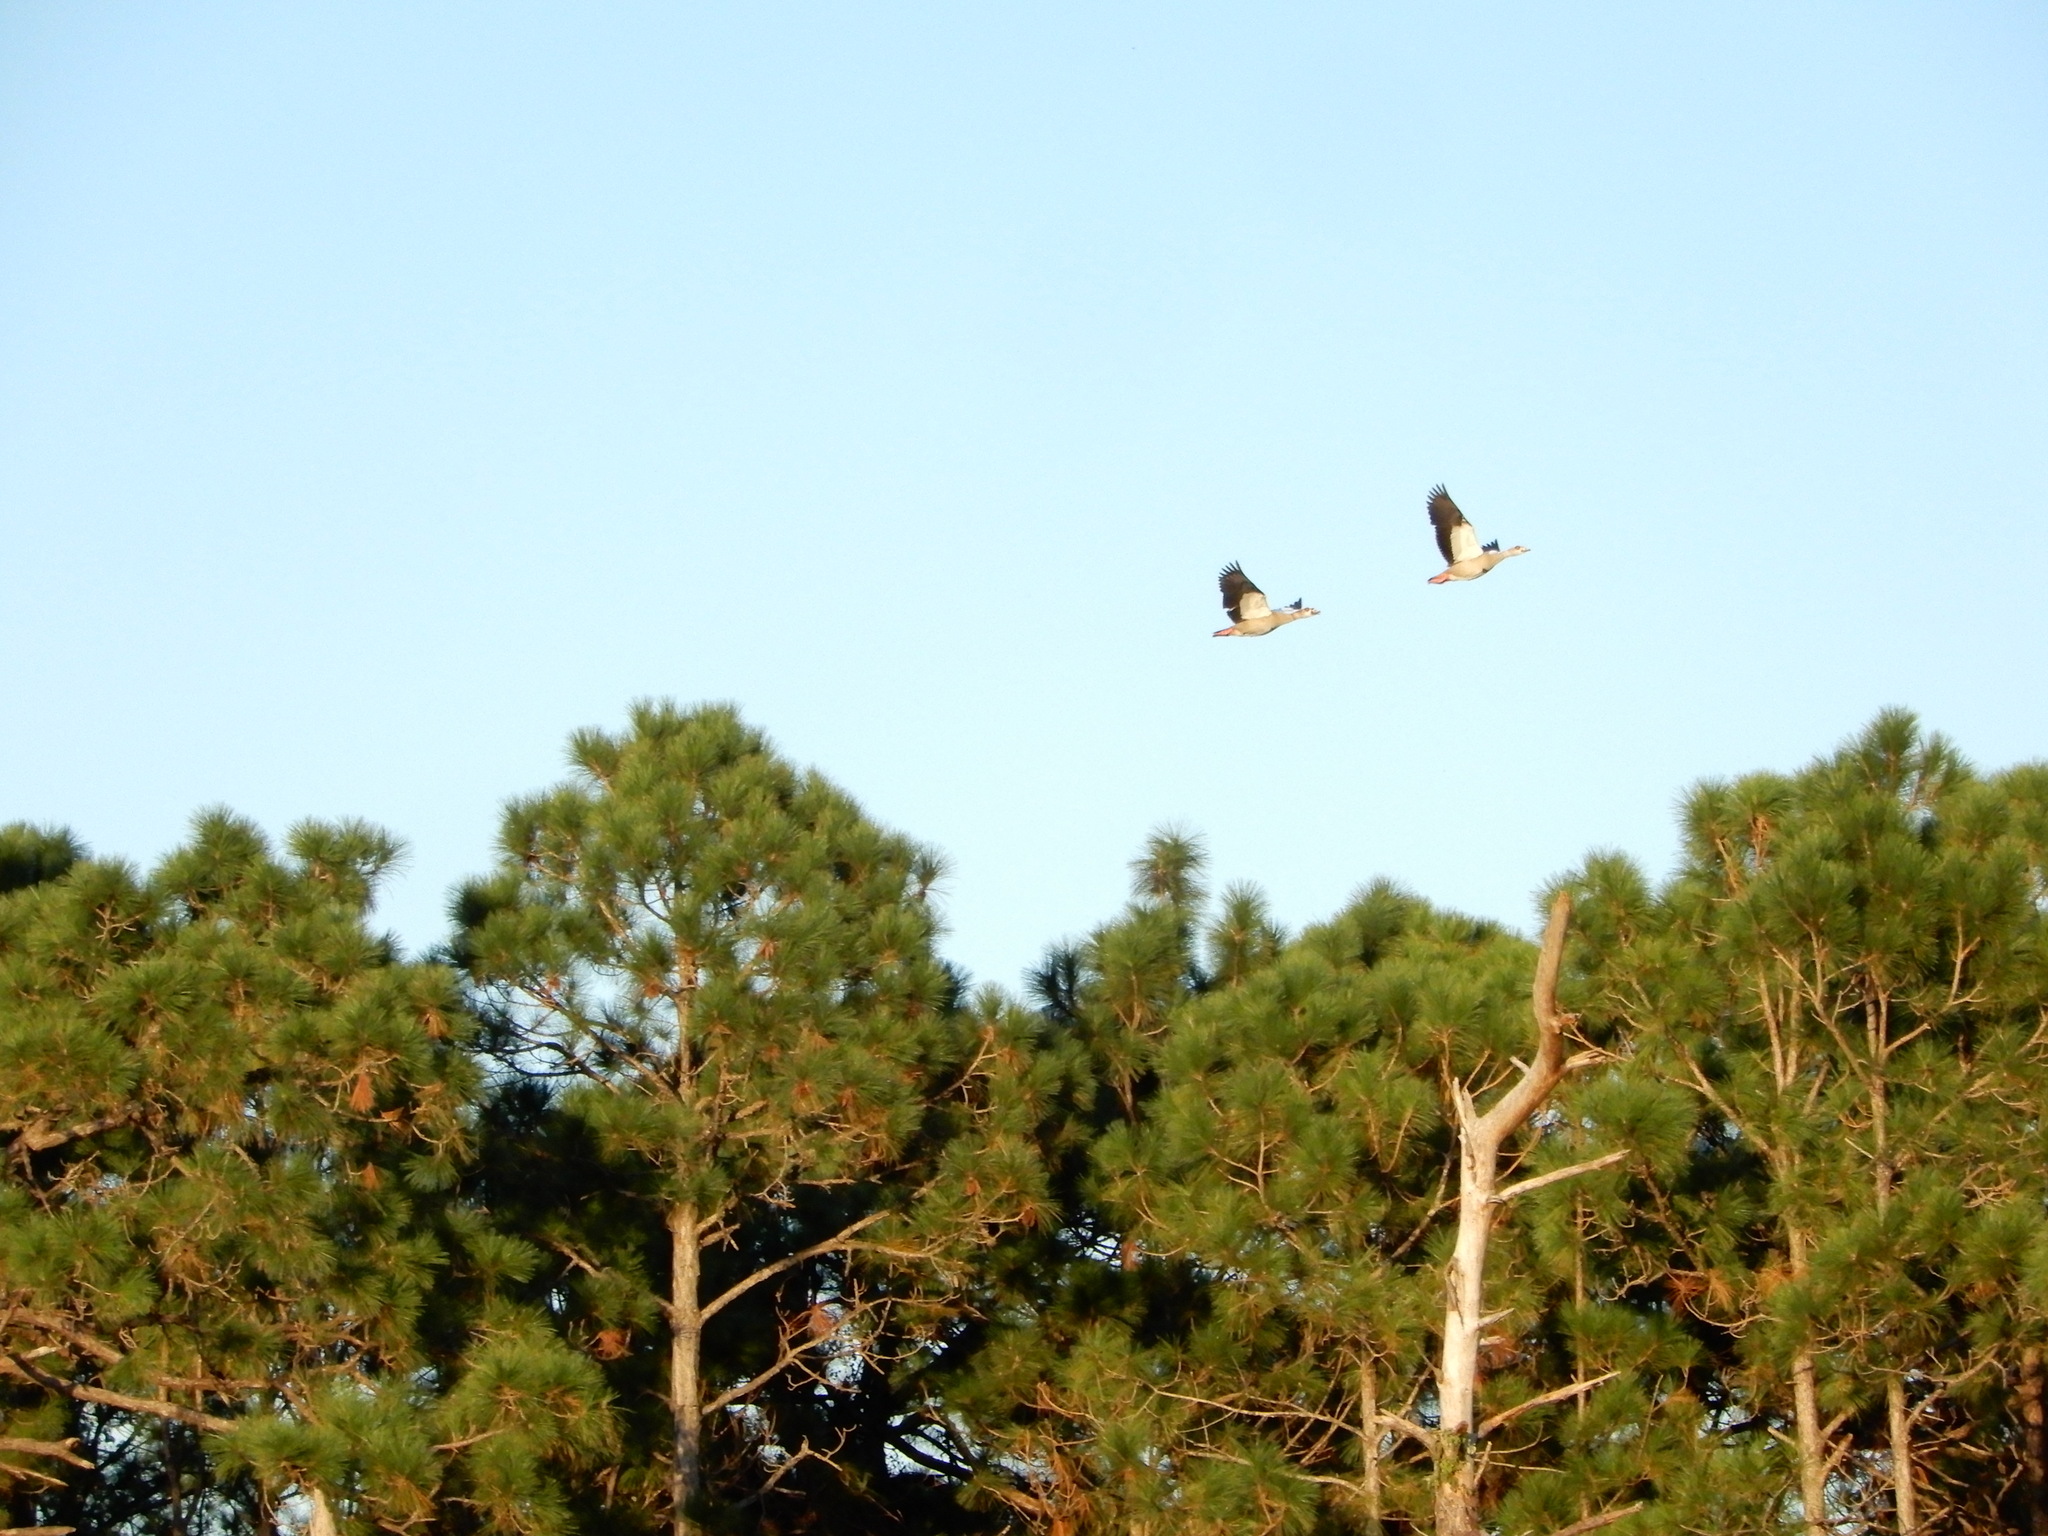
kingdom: Animalia
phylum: Chordata
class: Aves
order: Anseriformes
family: Anatidae
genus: Alopochen
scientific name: Alopochen aegyptiaca
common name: Egyptian goose
